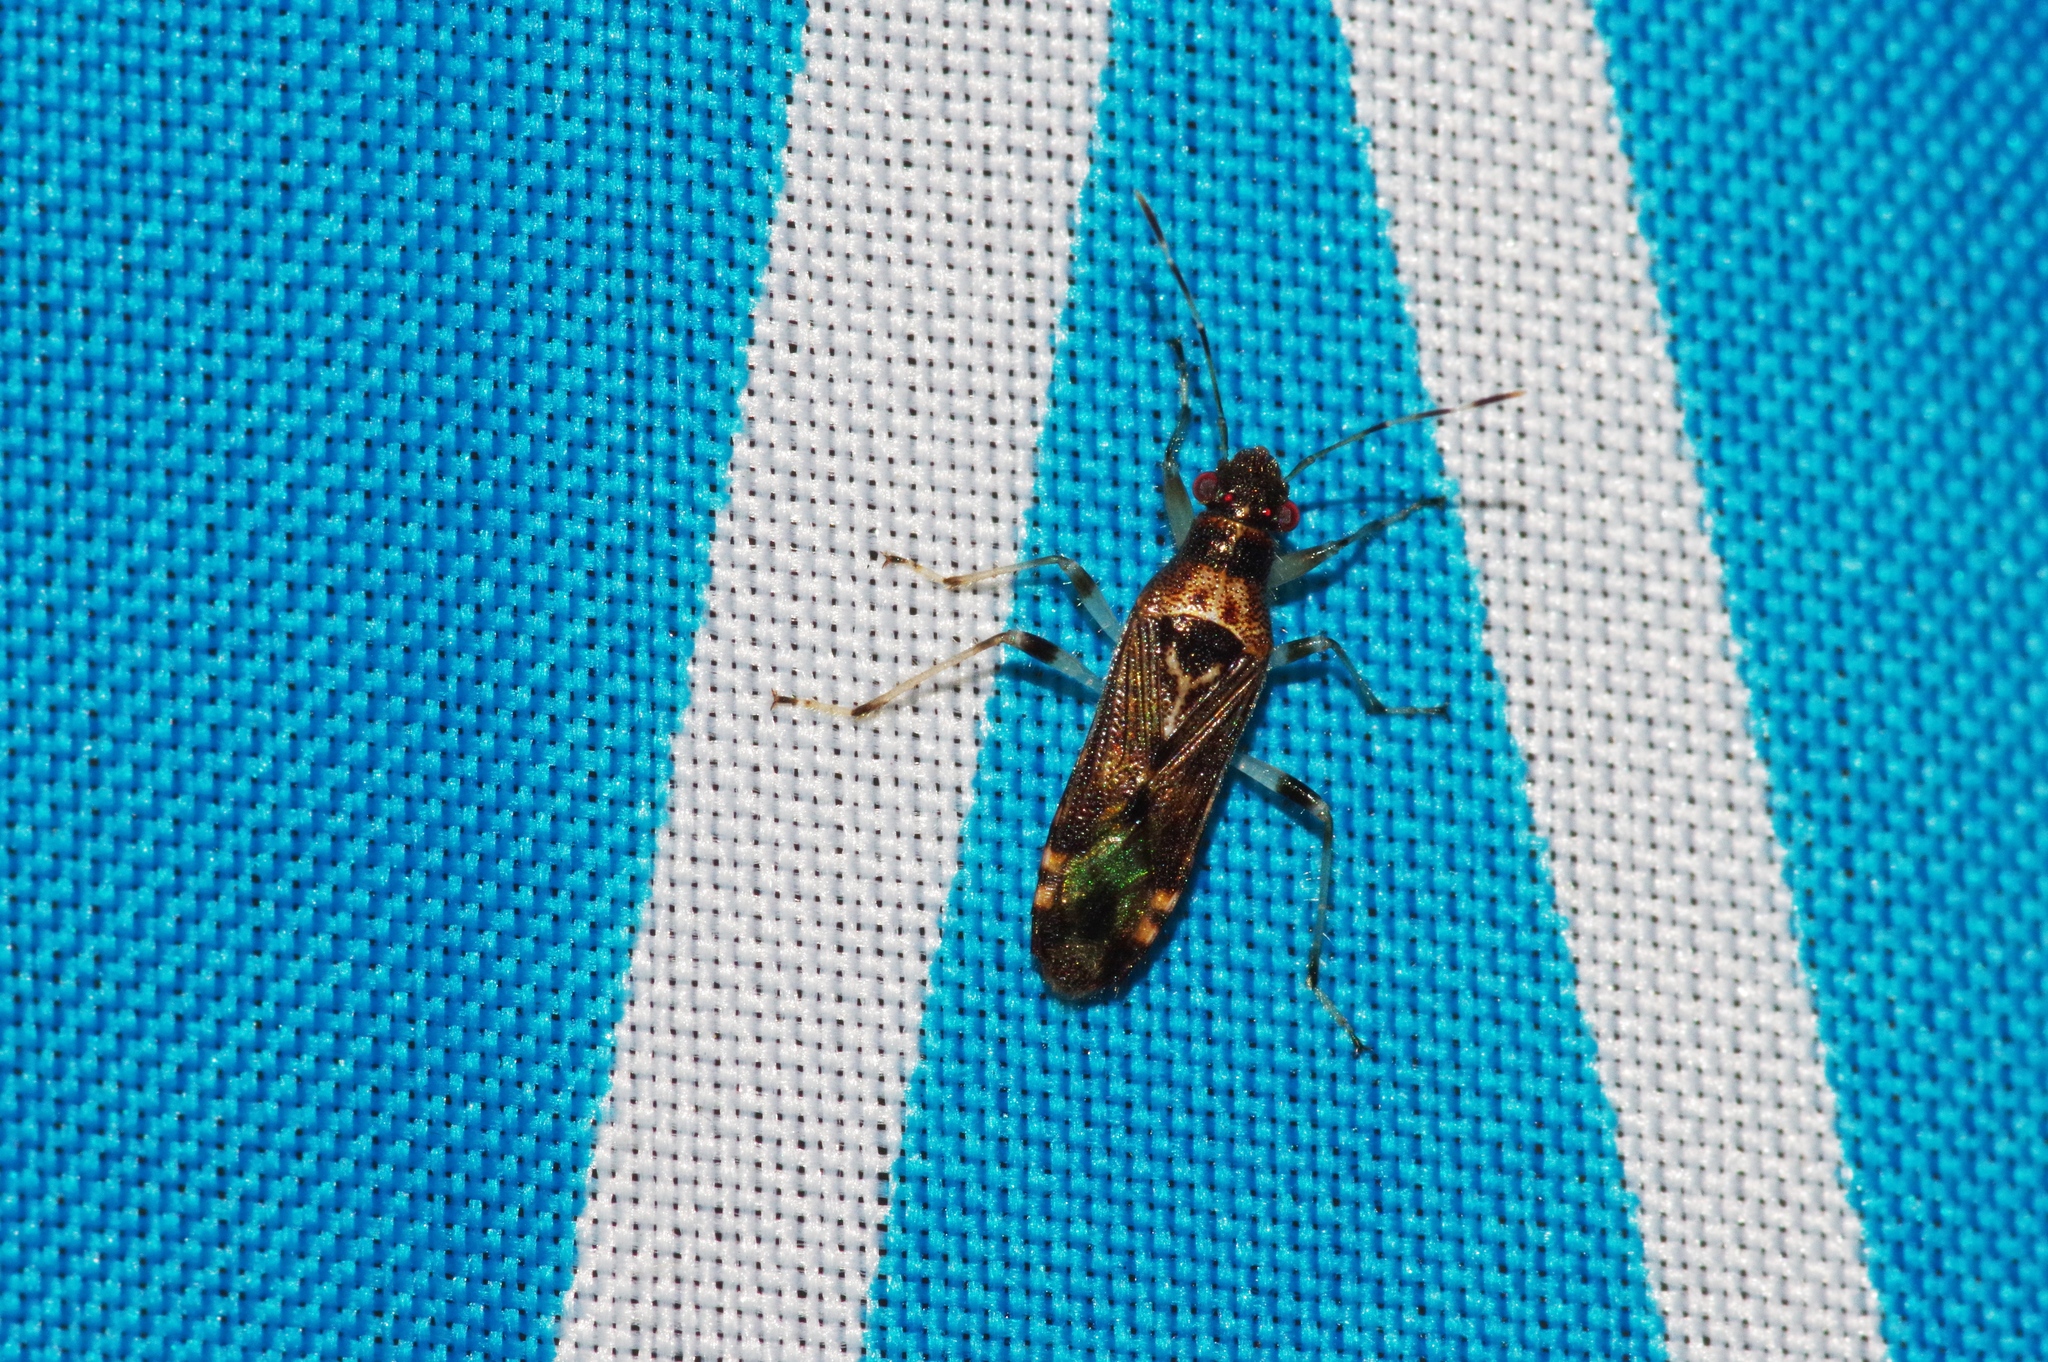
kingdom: Animalia
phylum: Arthropoda
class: Insecta
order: Hemiptera
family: Heterogastridae
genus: Parathyginus
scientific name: Parathyginus signifer
